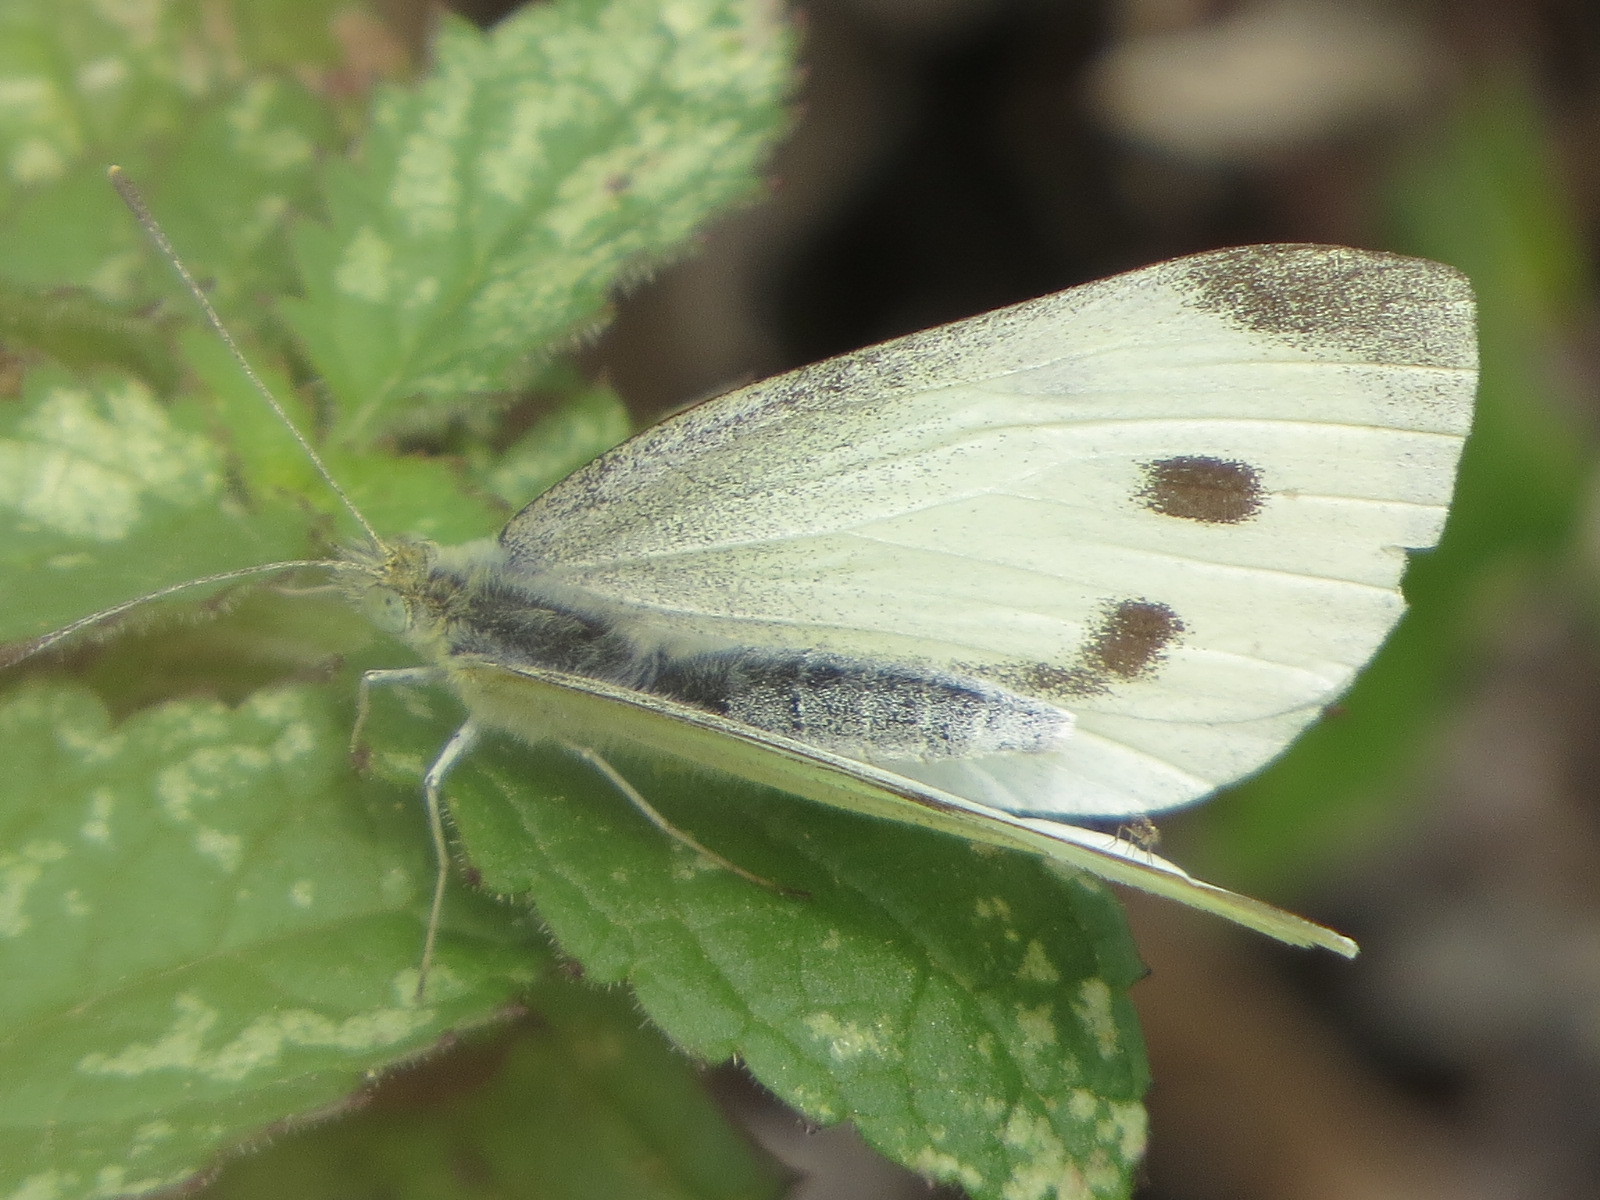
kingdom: Animalia
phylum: Arthropoda
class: Insecta
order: Lepidoptera
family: Pieridae
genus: Pieris
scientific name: Pieris rapae
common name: Small white
